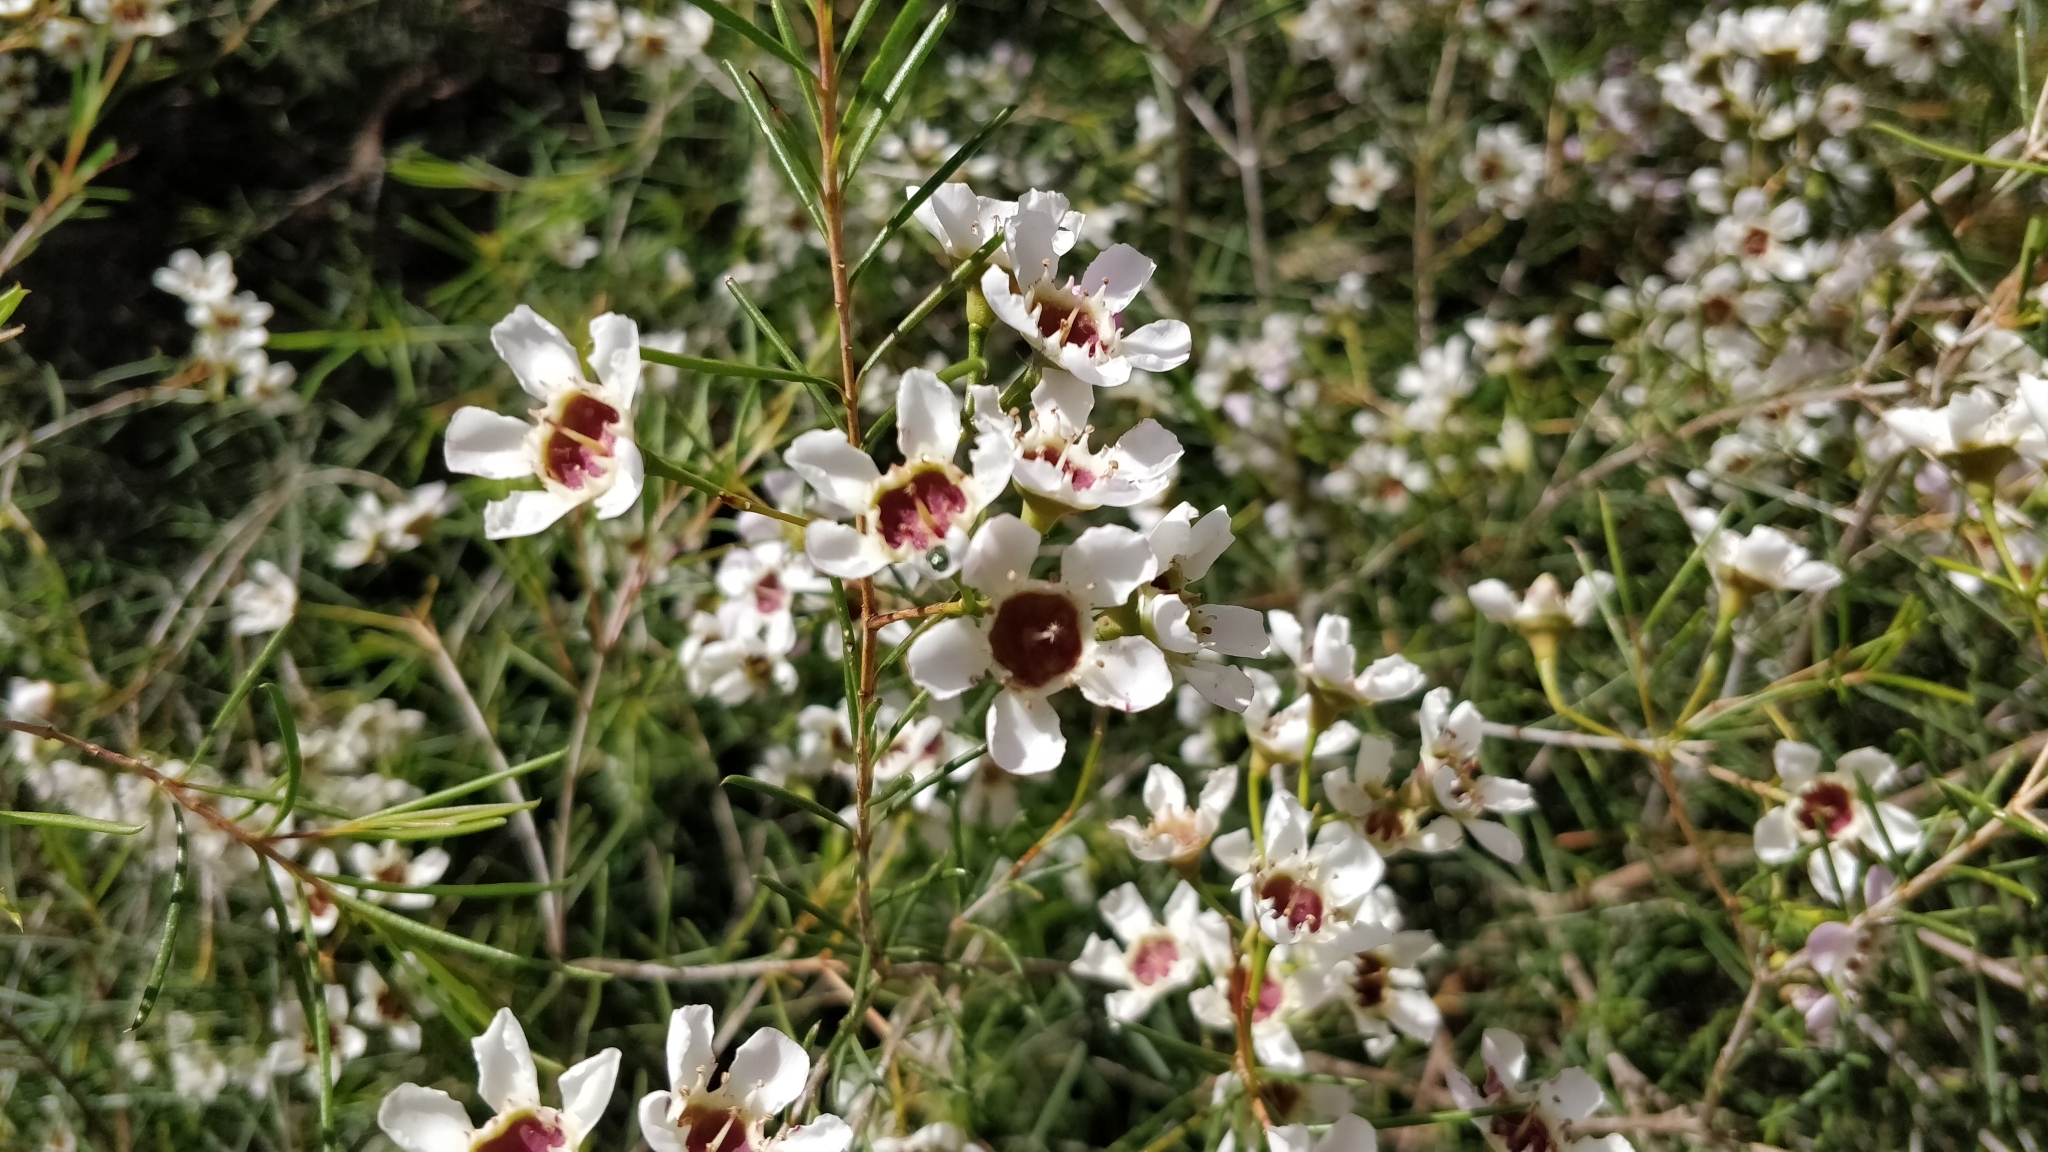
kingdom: Plantae
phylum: Tracheophyta
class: Magnoliopsida
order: Myrtales
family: Myrtaceae
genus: Chamelaucium
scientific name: Chamelaucium uncinatum
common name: Geraldton wax
